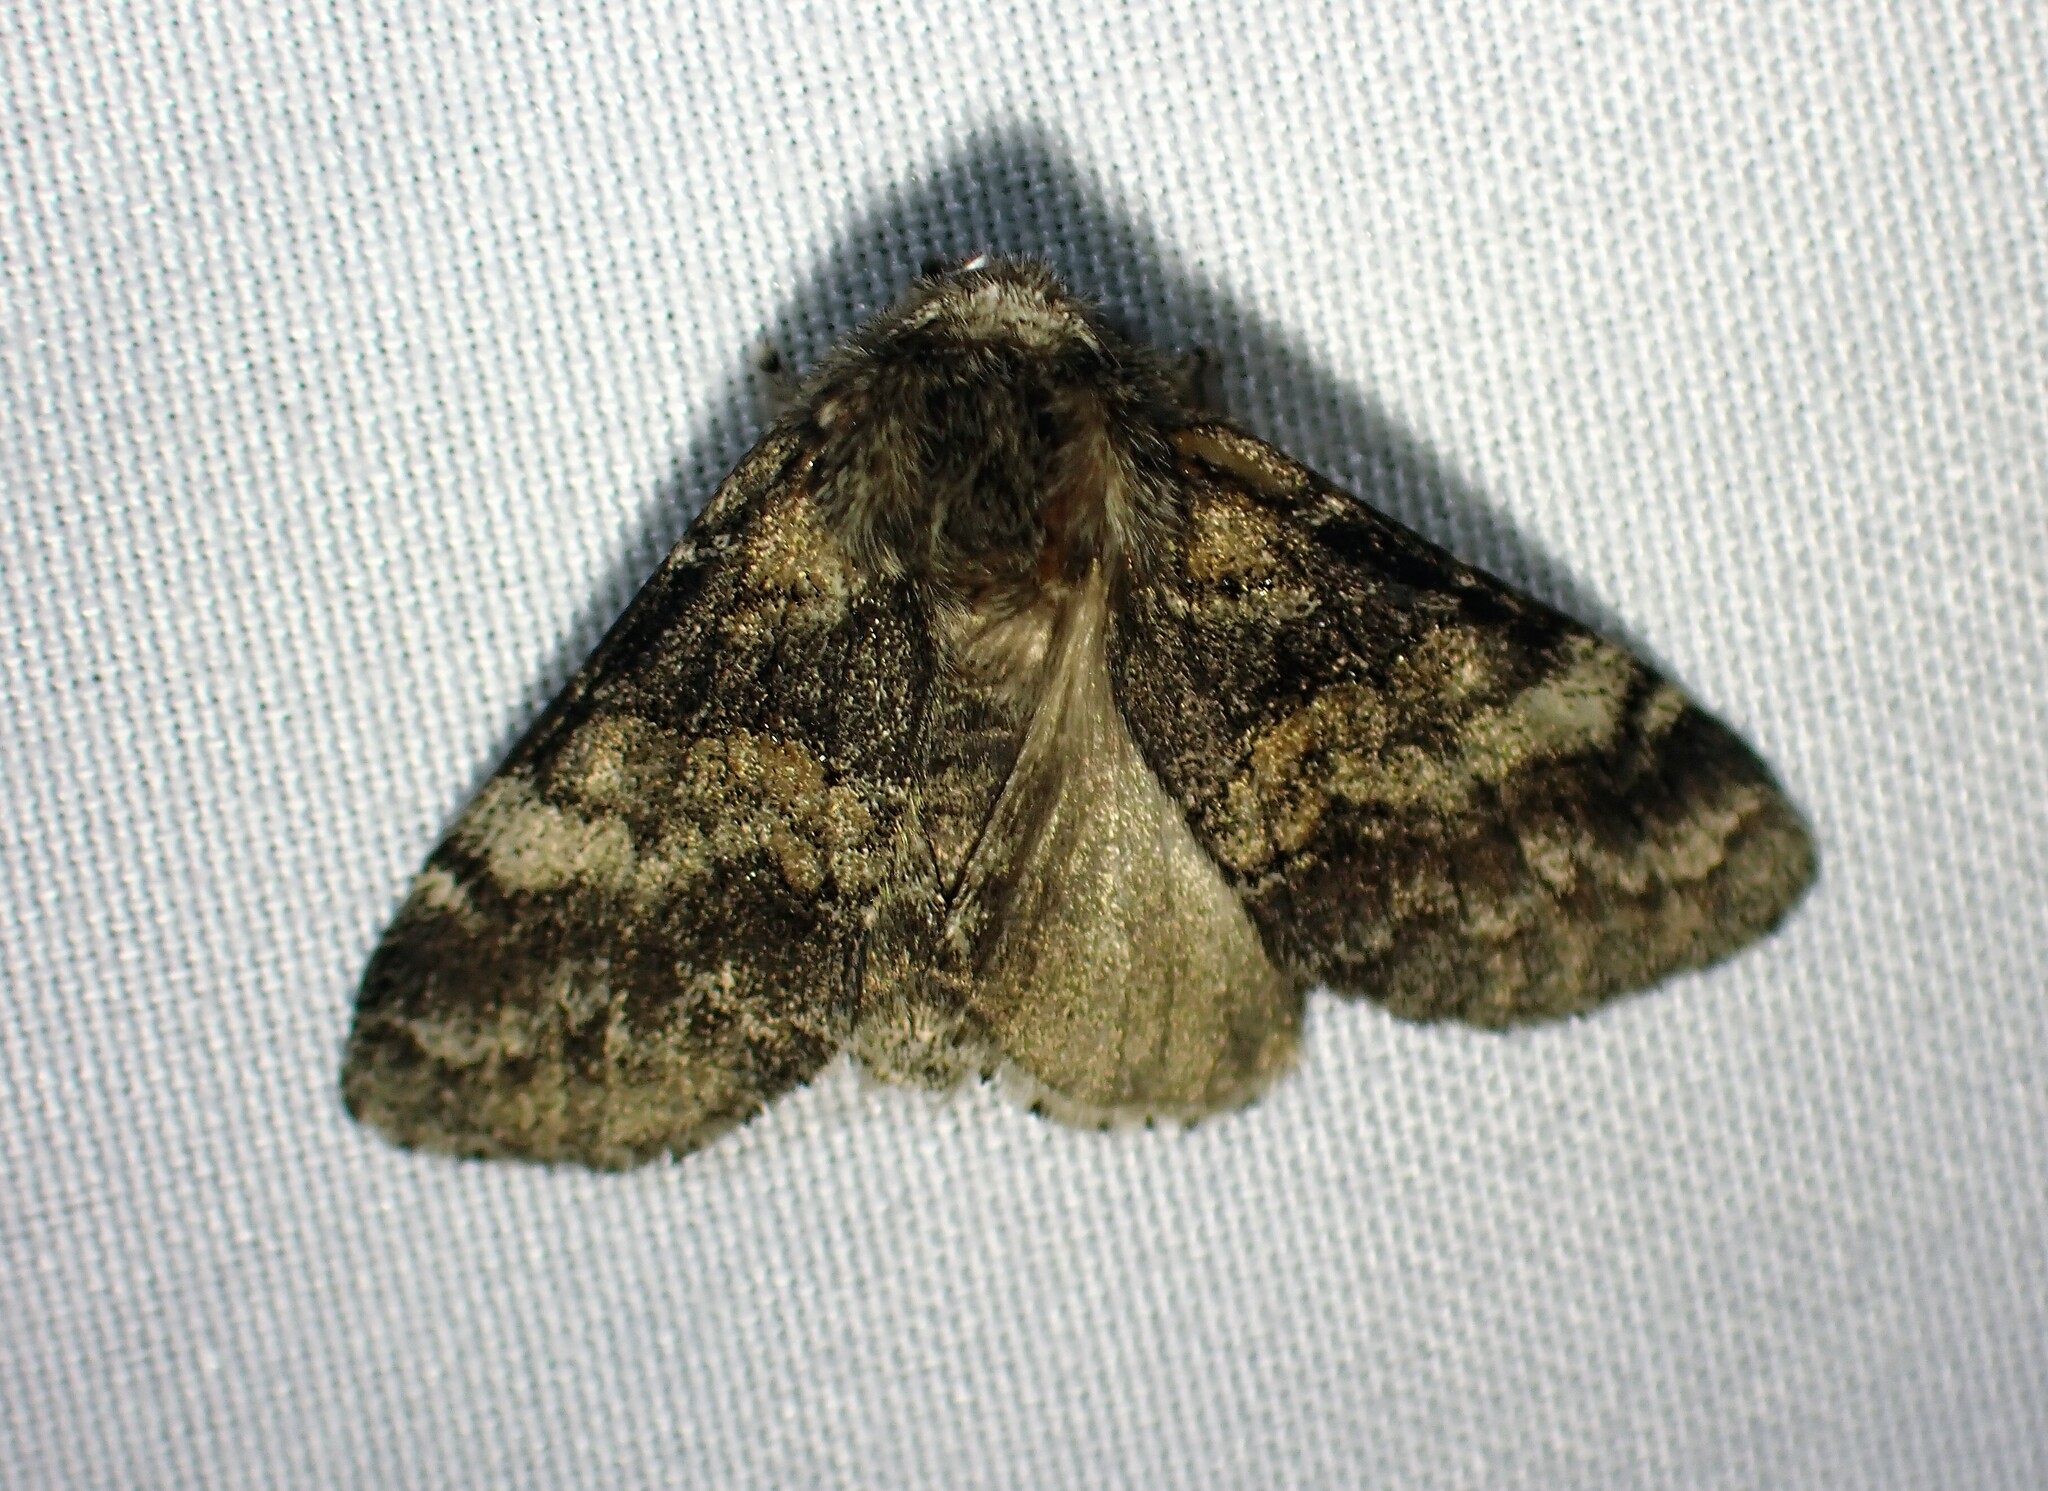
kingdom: Animalia
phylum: Arthropoda
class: Insecta
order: Lepidoptera
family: Notodontidae
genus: Gluphisia
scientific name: Gluphisia septentrionis
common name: Common gluphisia
